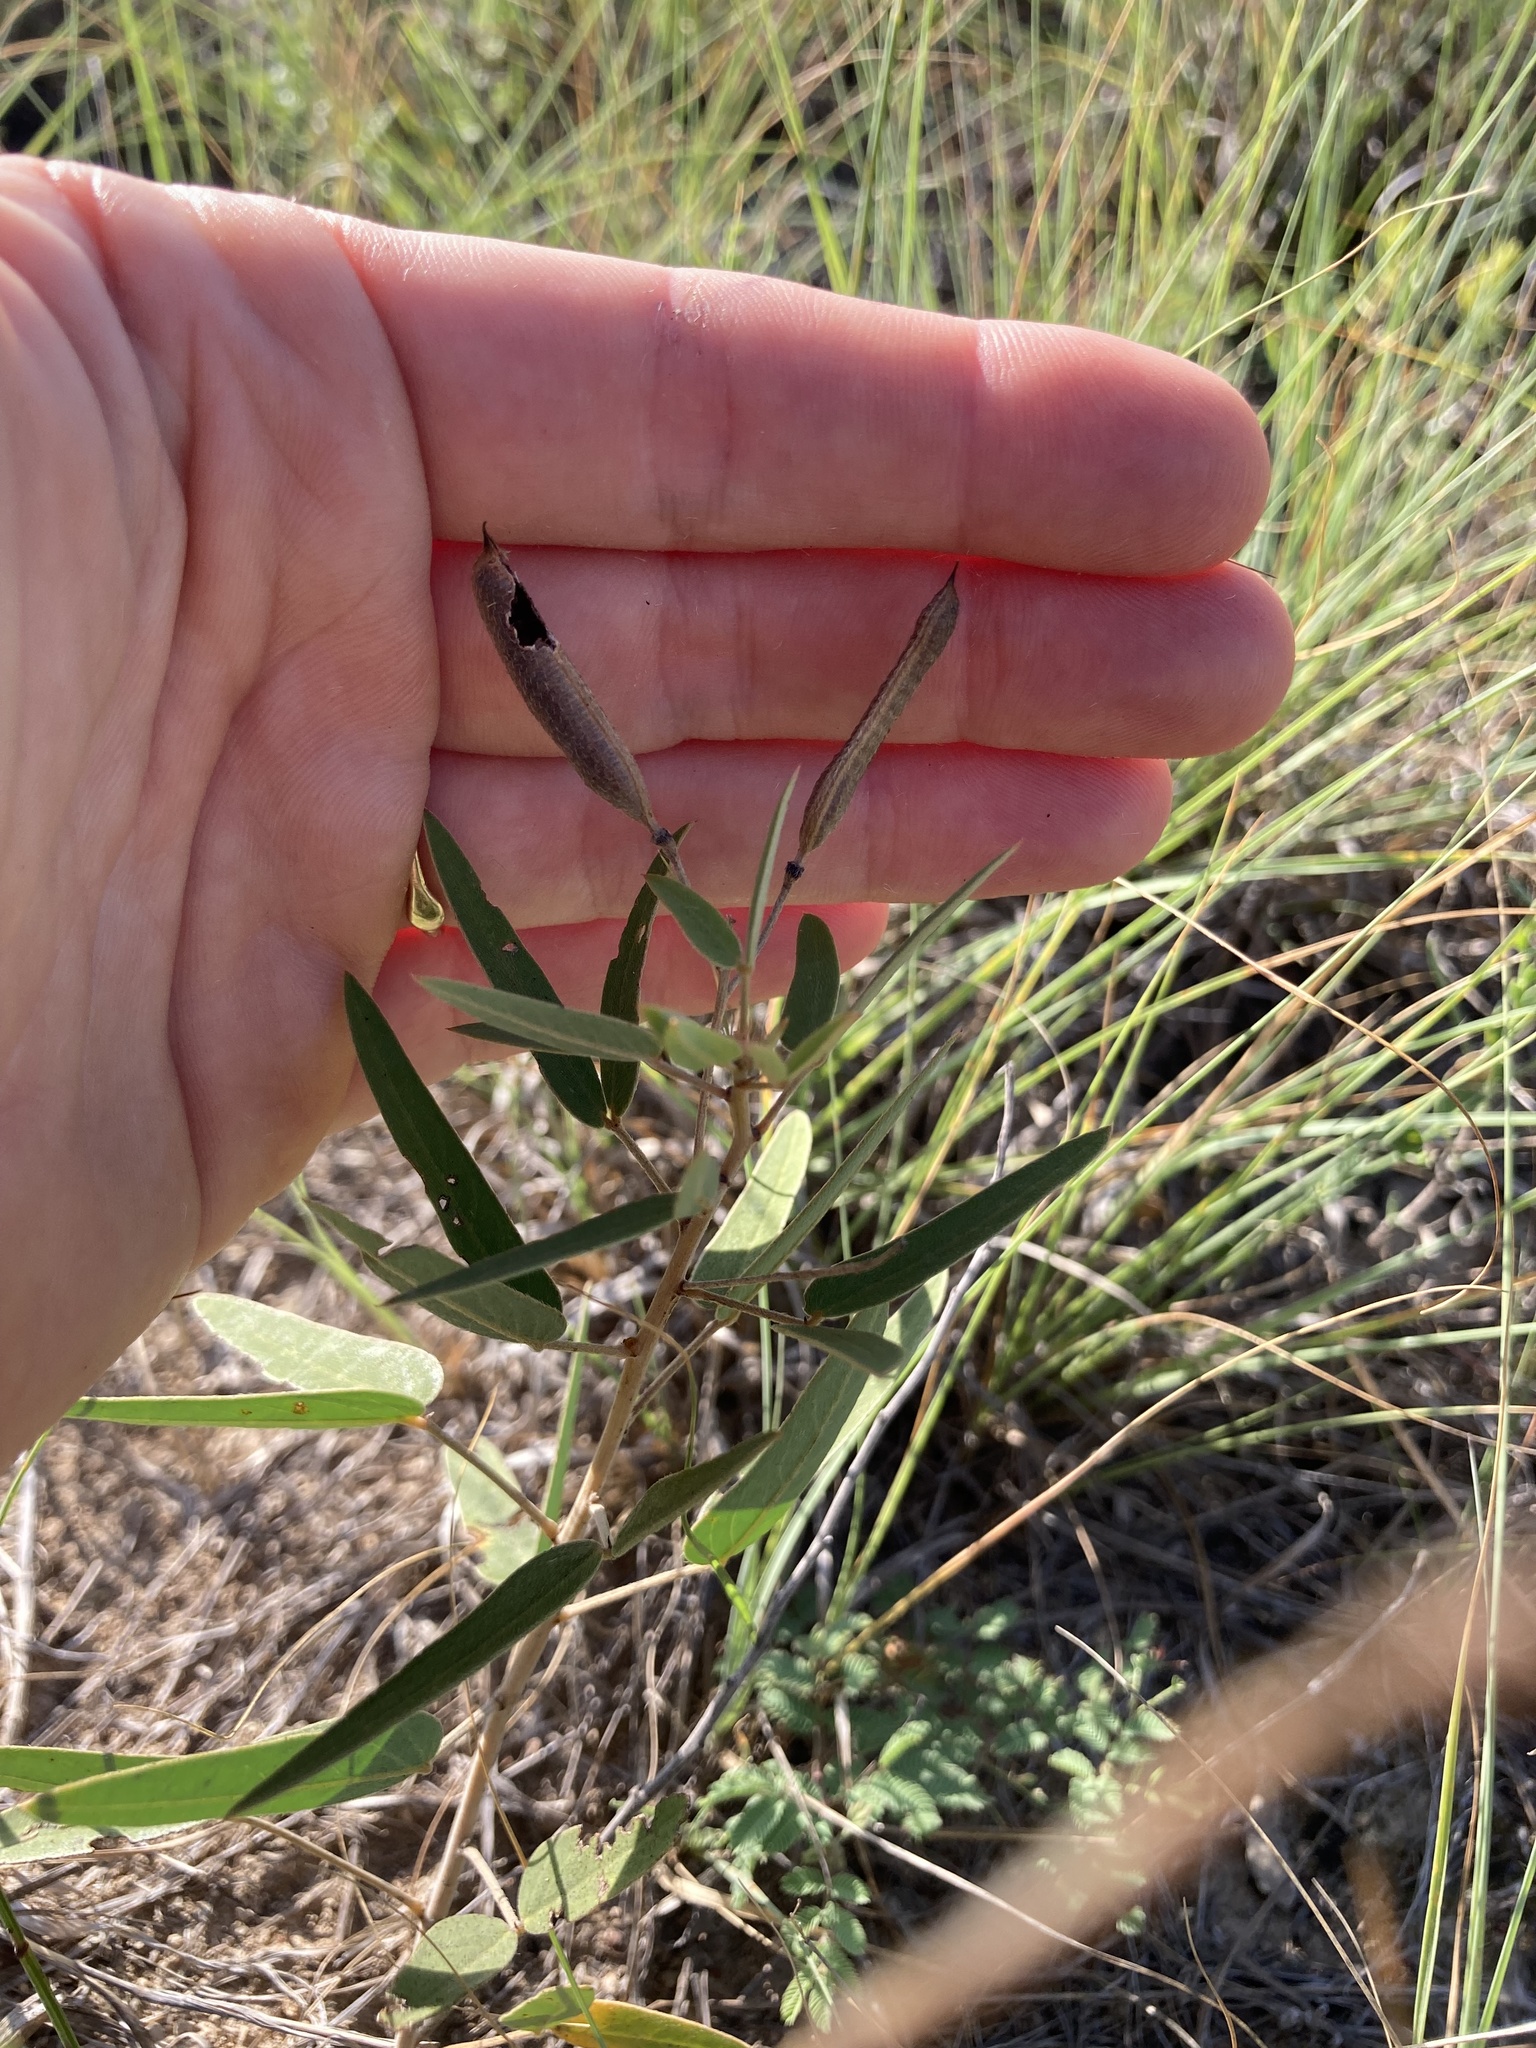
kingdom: Plantae
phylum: Tracheophyta
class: Magnoliopsida
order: Fabales
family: Fabaceae
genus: Senna
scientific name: Senna roemeriana
